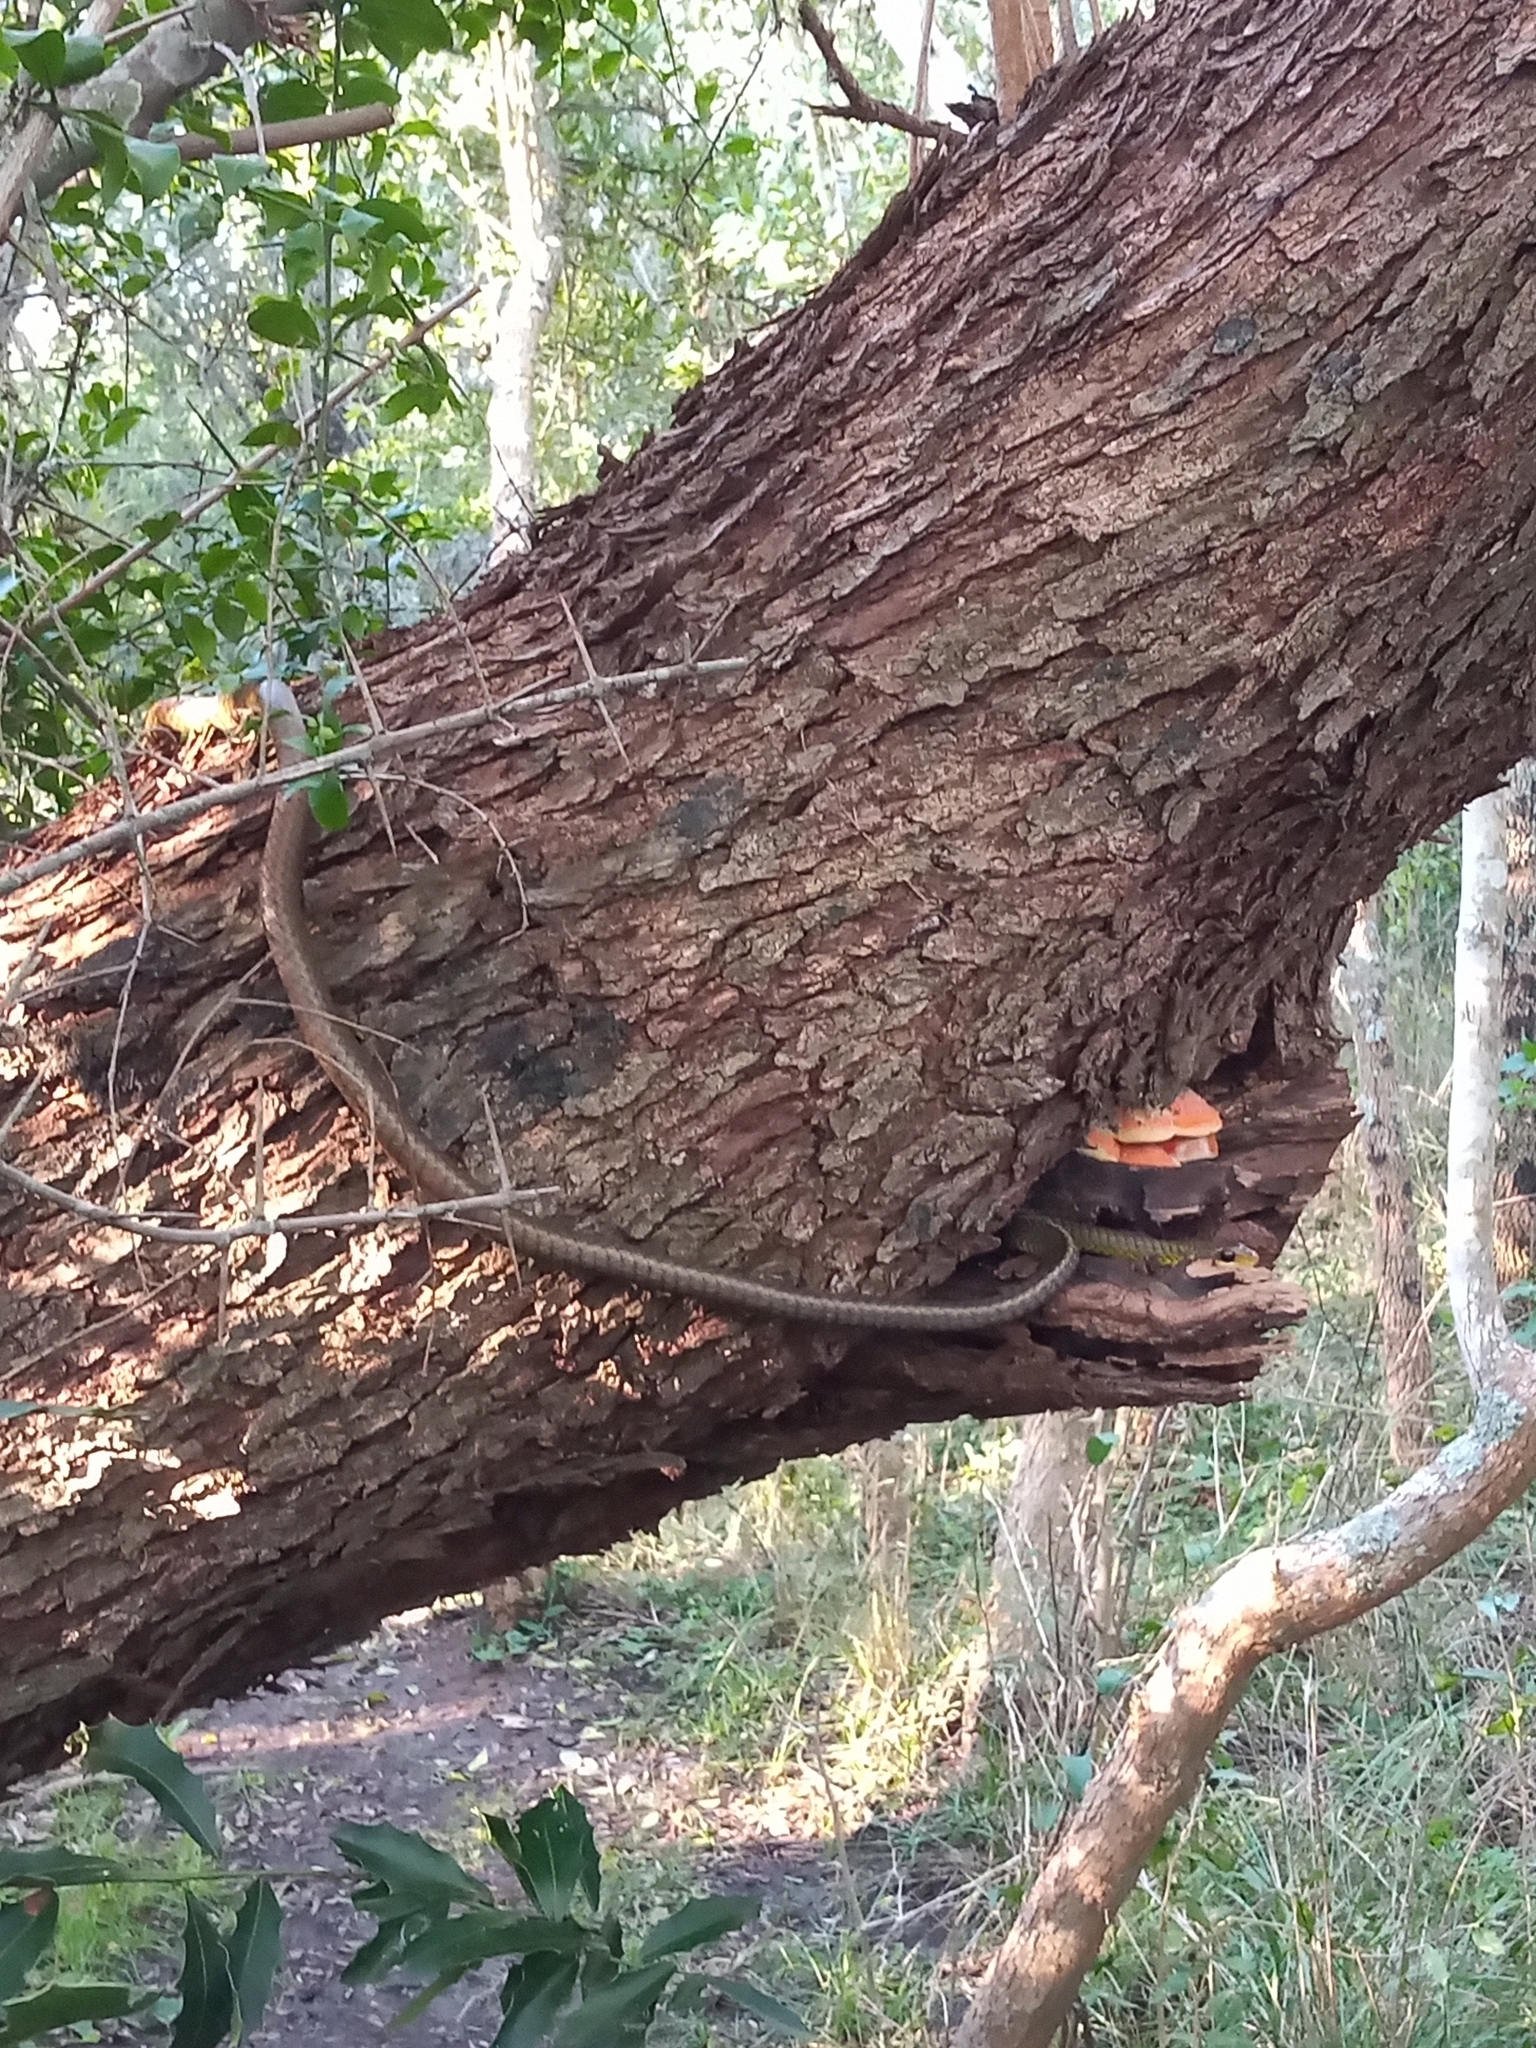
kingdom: Animalia
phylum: Chordata
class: Squamata
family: Colubridae
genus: Chironius
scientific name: Chironius gouveai
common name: Gouvea’s sipo
